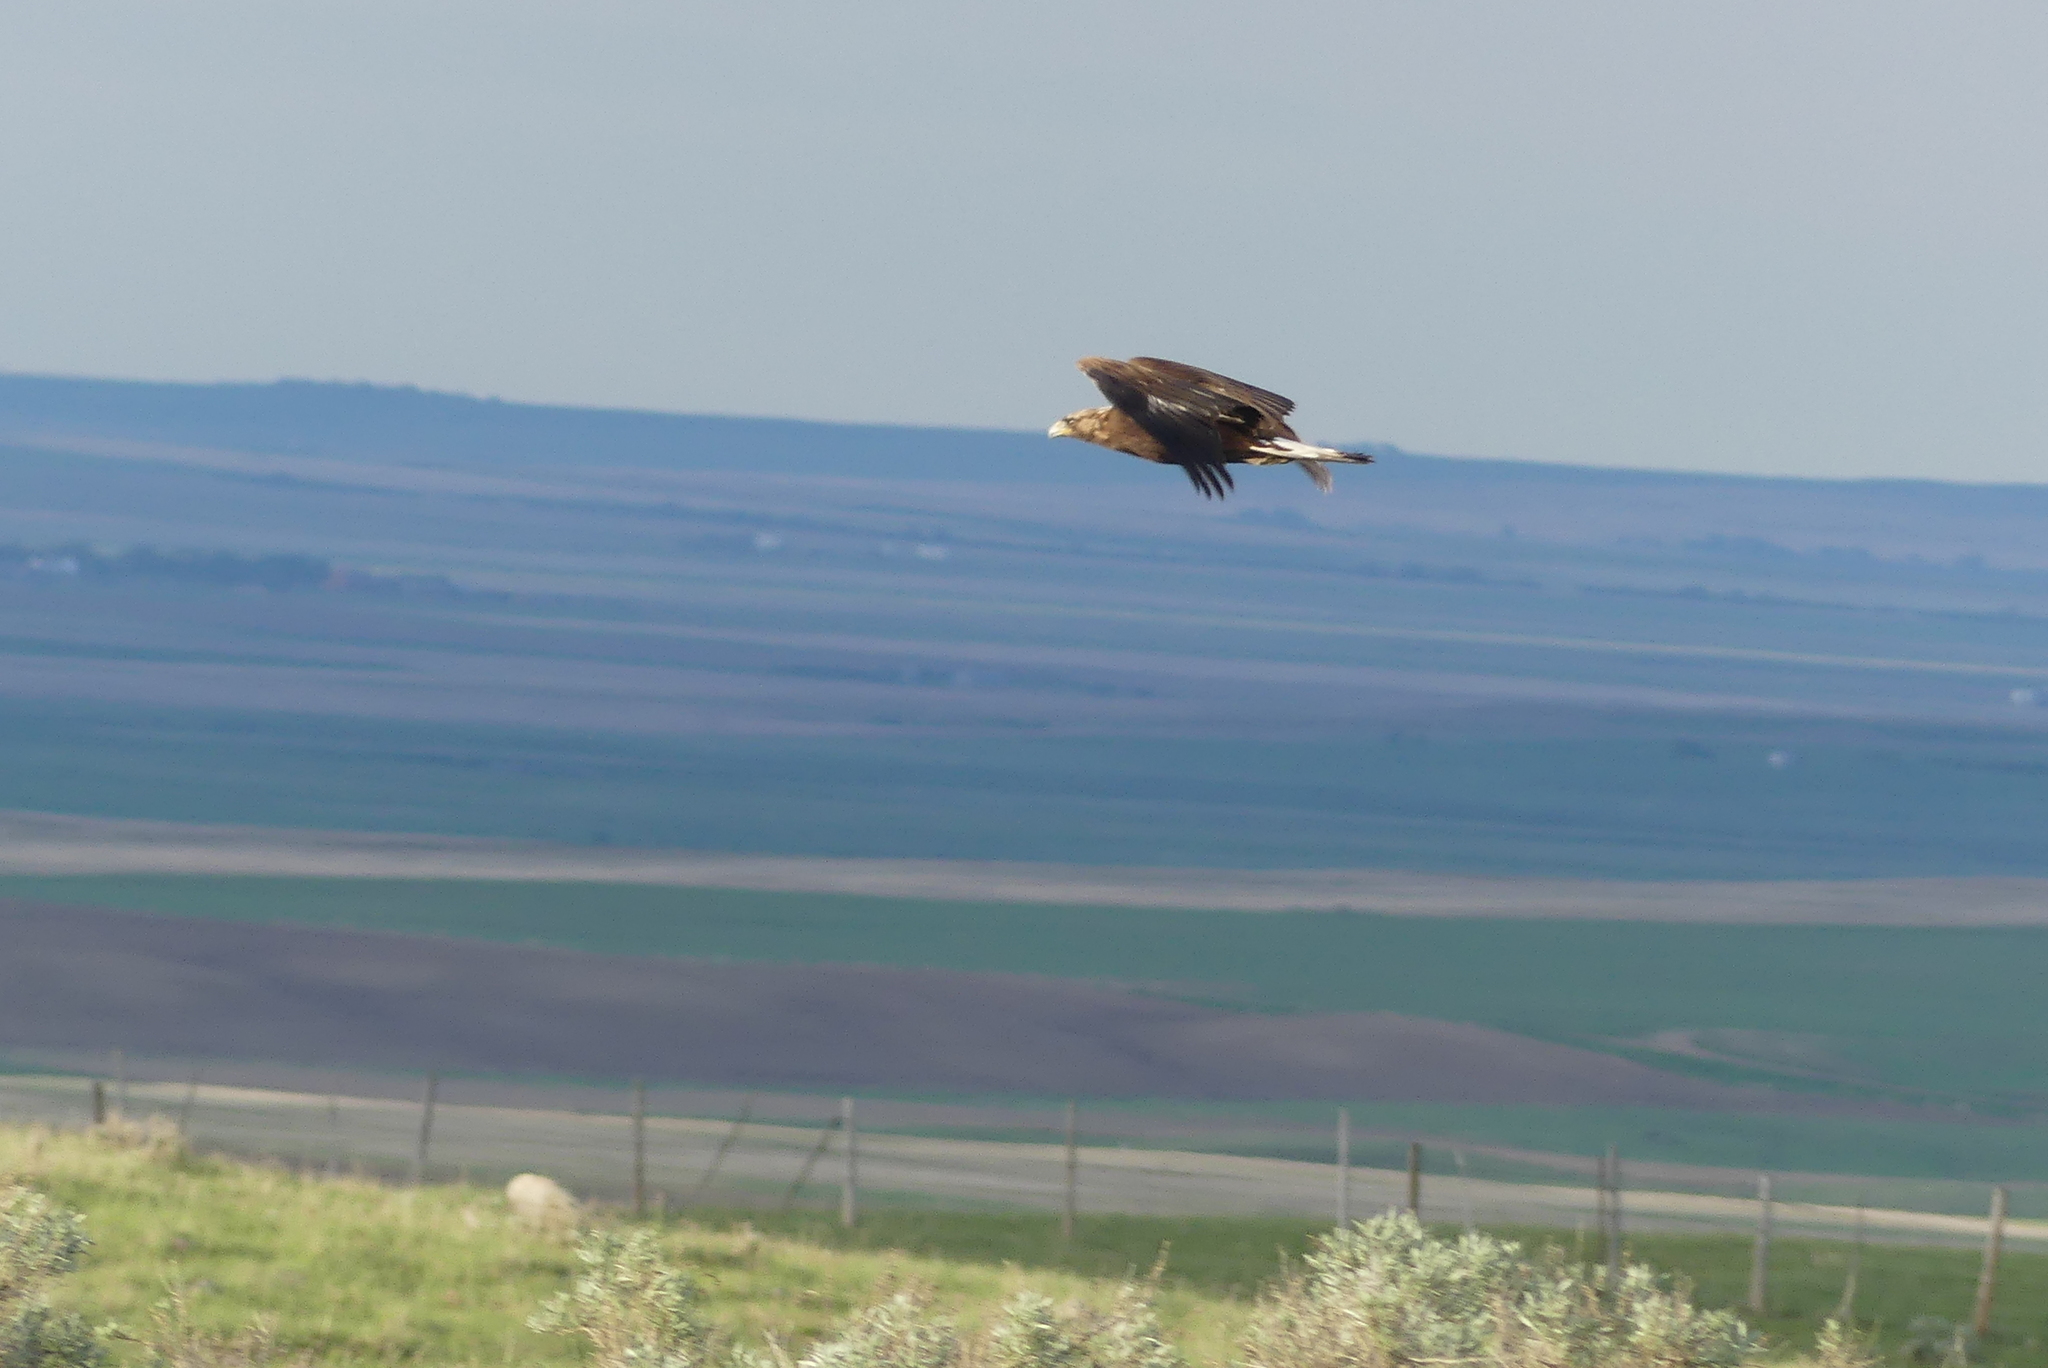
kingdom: Animalia
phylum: Chordata
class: Aves
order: Accipitriformes
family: Accipitridae
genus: Aquila
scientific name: Aquila chrysaetos
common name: Golden eagle
